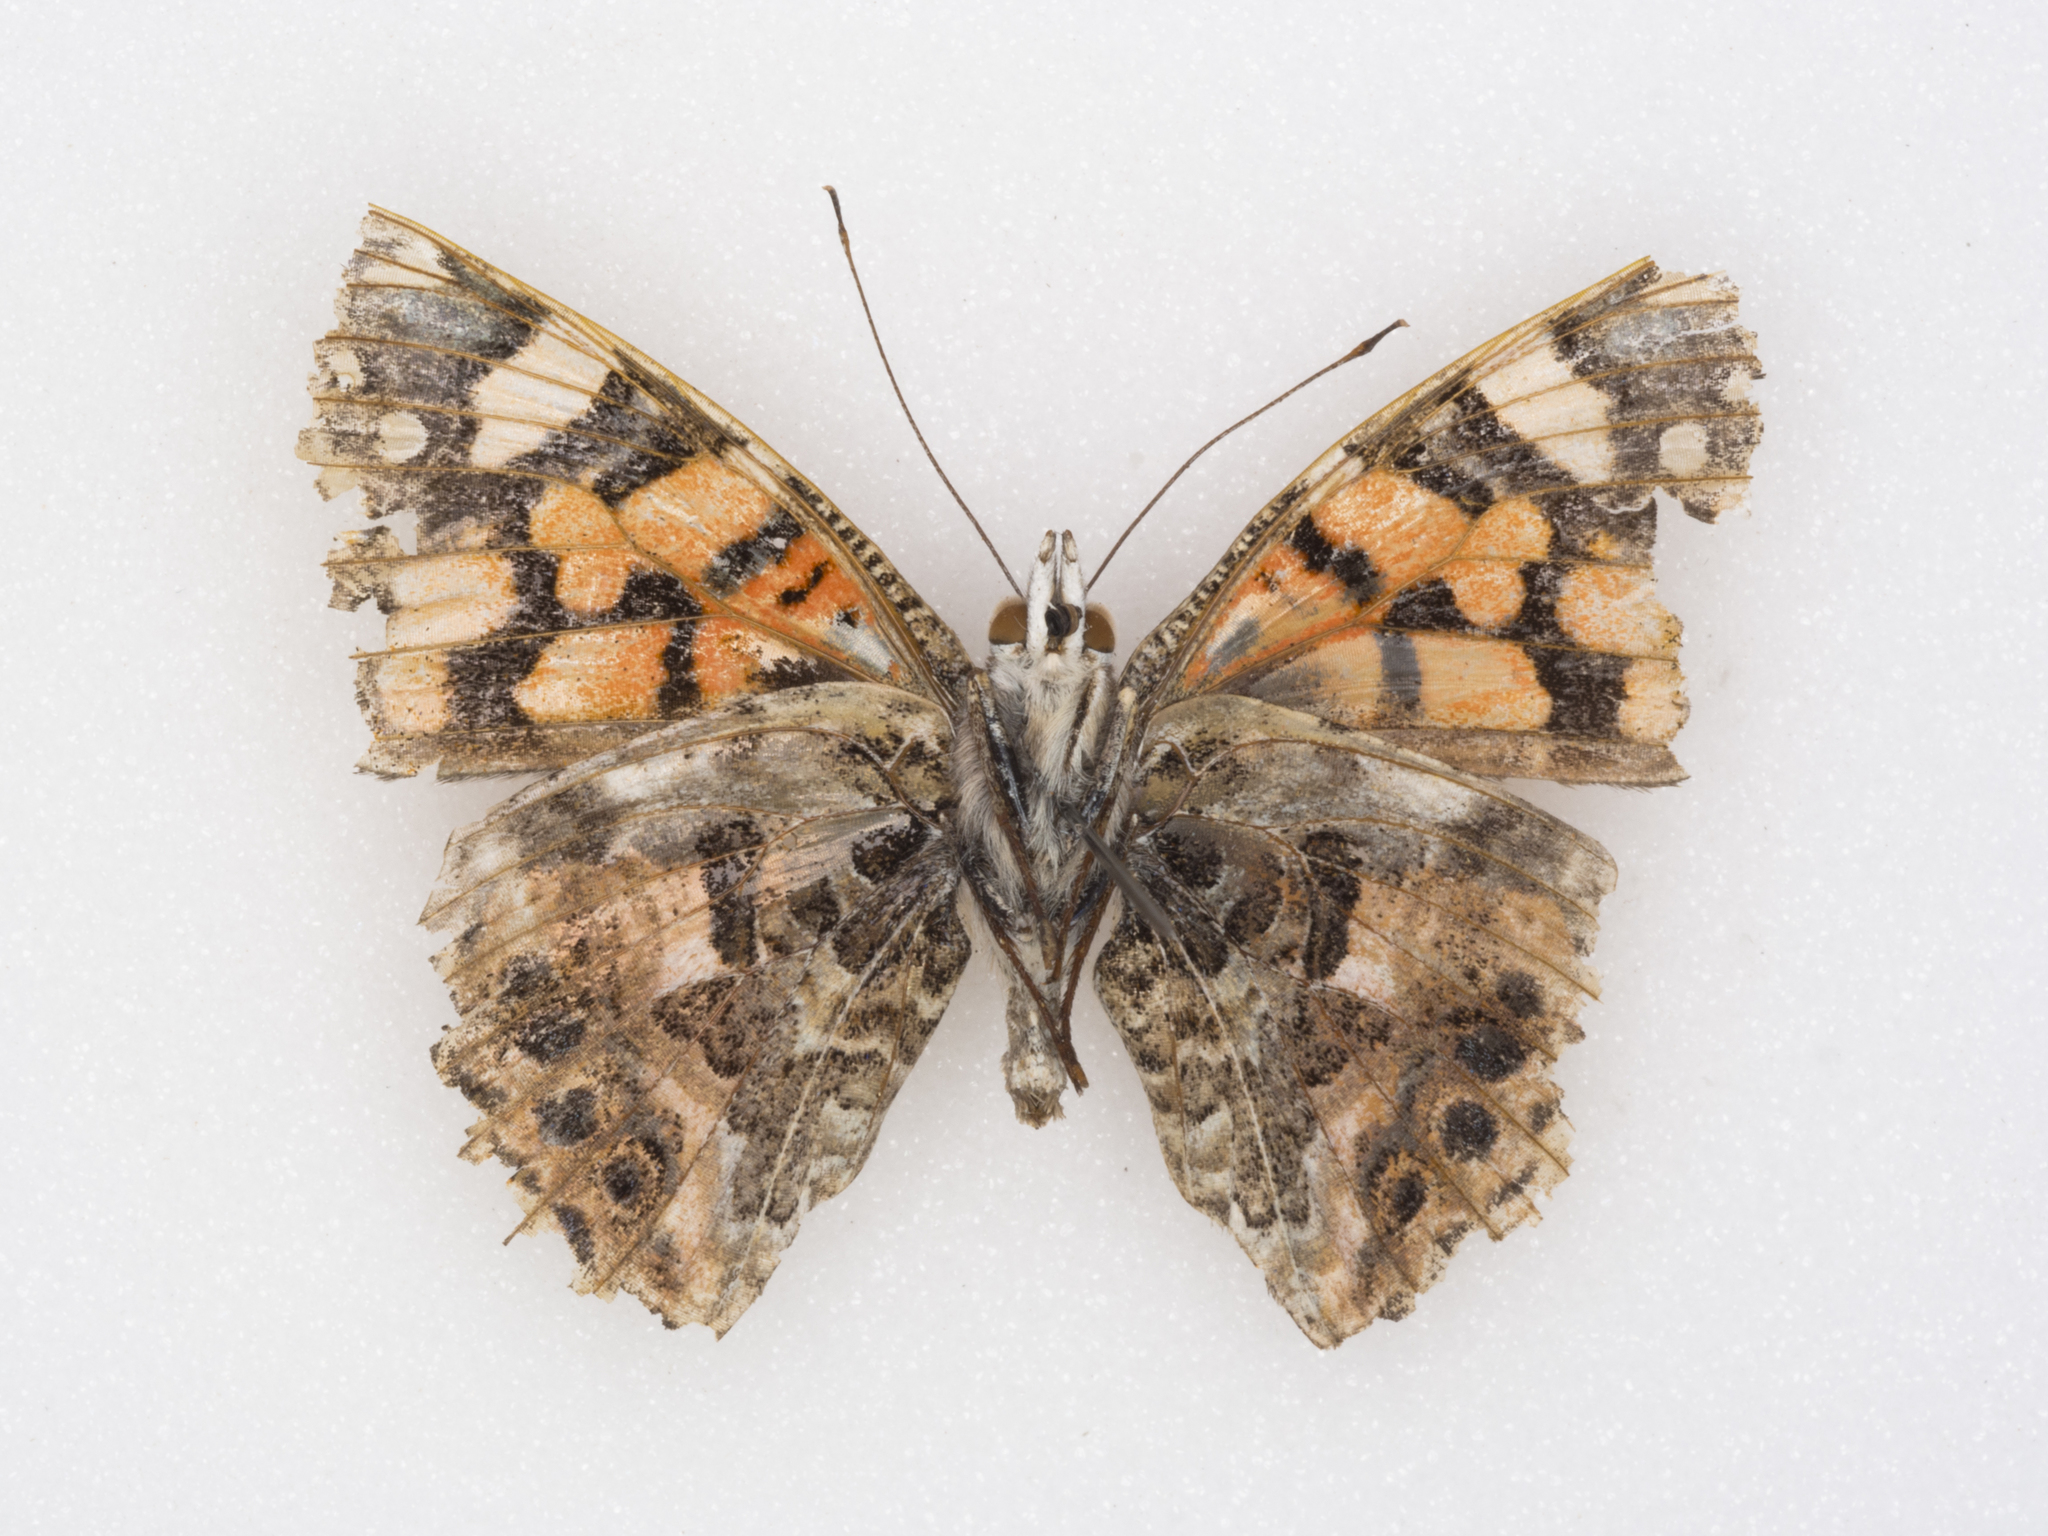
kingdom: Animalia
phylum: Arthropoda
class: Insecta
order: Lepidoptera
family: Nymphalidae
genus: Vanessa
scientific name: Vanessa annabella
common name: West coast lady
